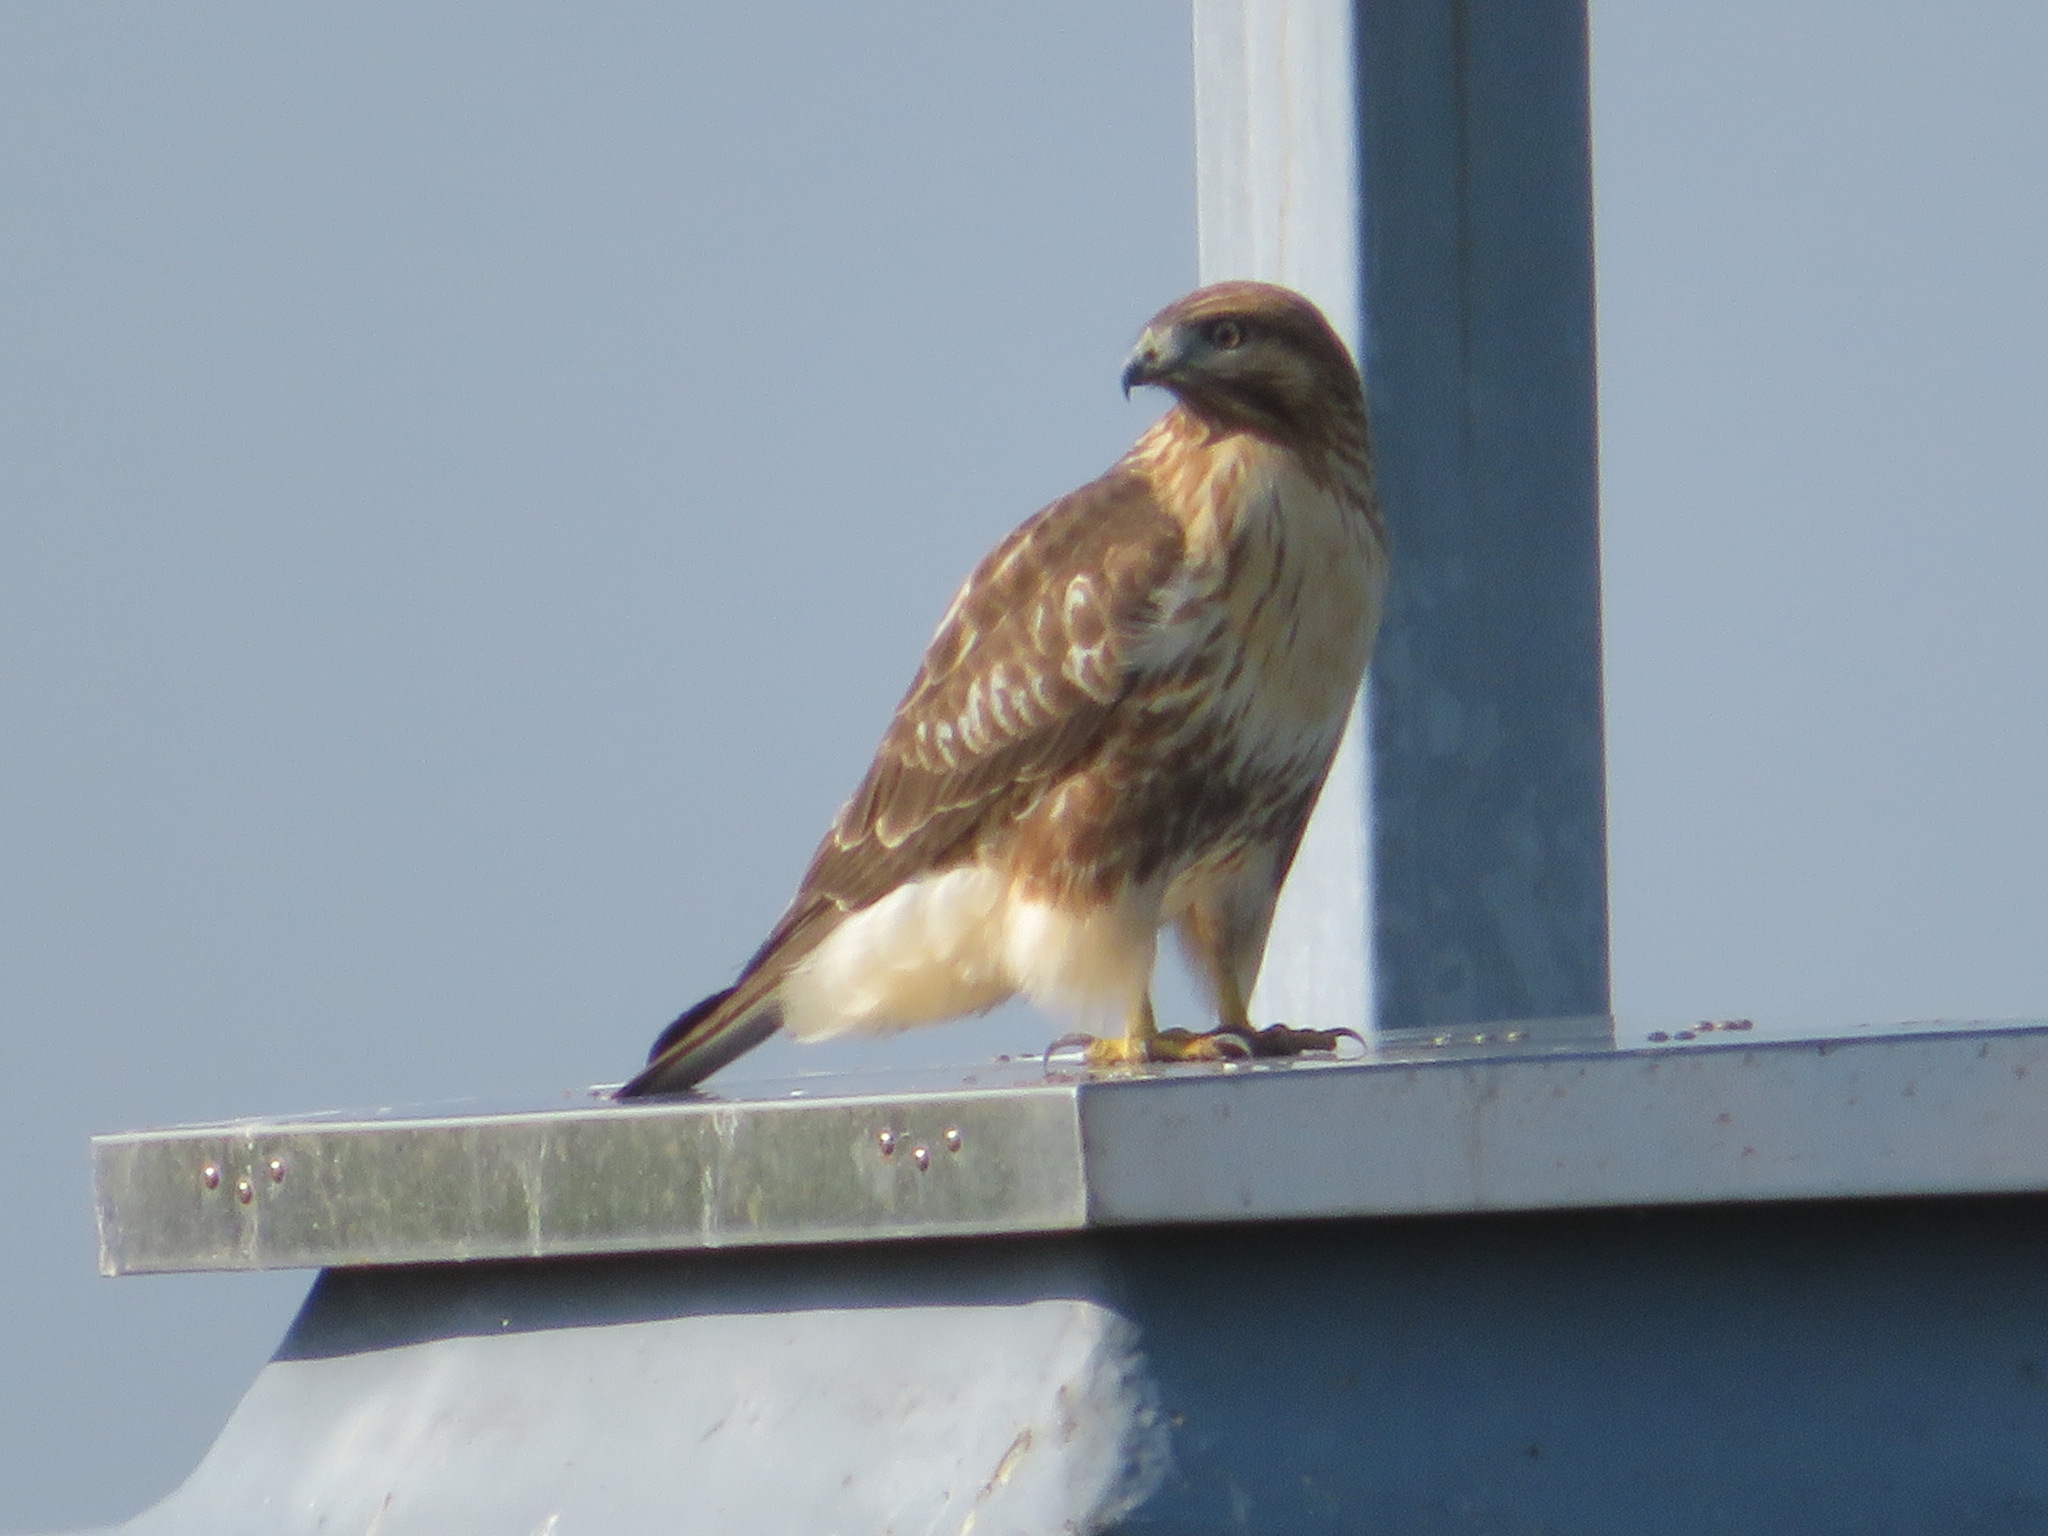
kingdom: Animalia
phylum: Chordata
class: Aves
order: Accipitriformes
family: Accipitridae
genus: Buteo
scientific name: Buteo japonicus
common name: Eastern buzzard
